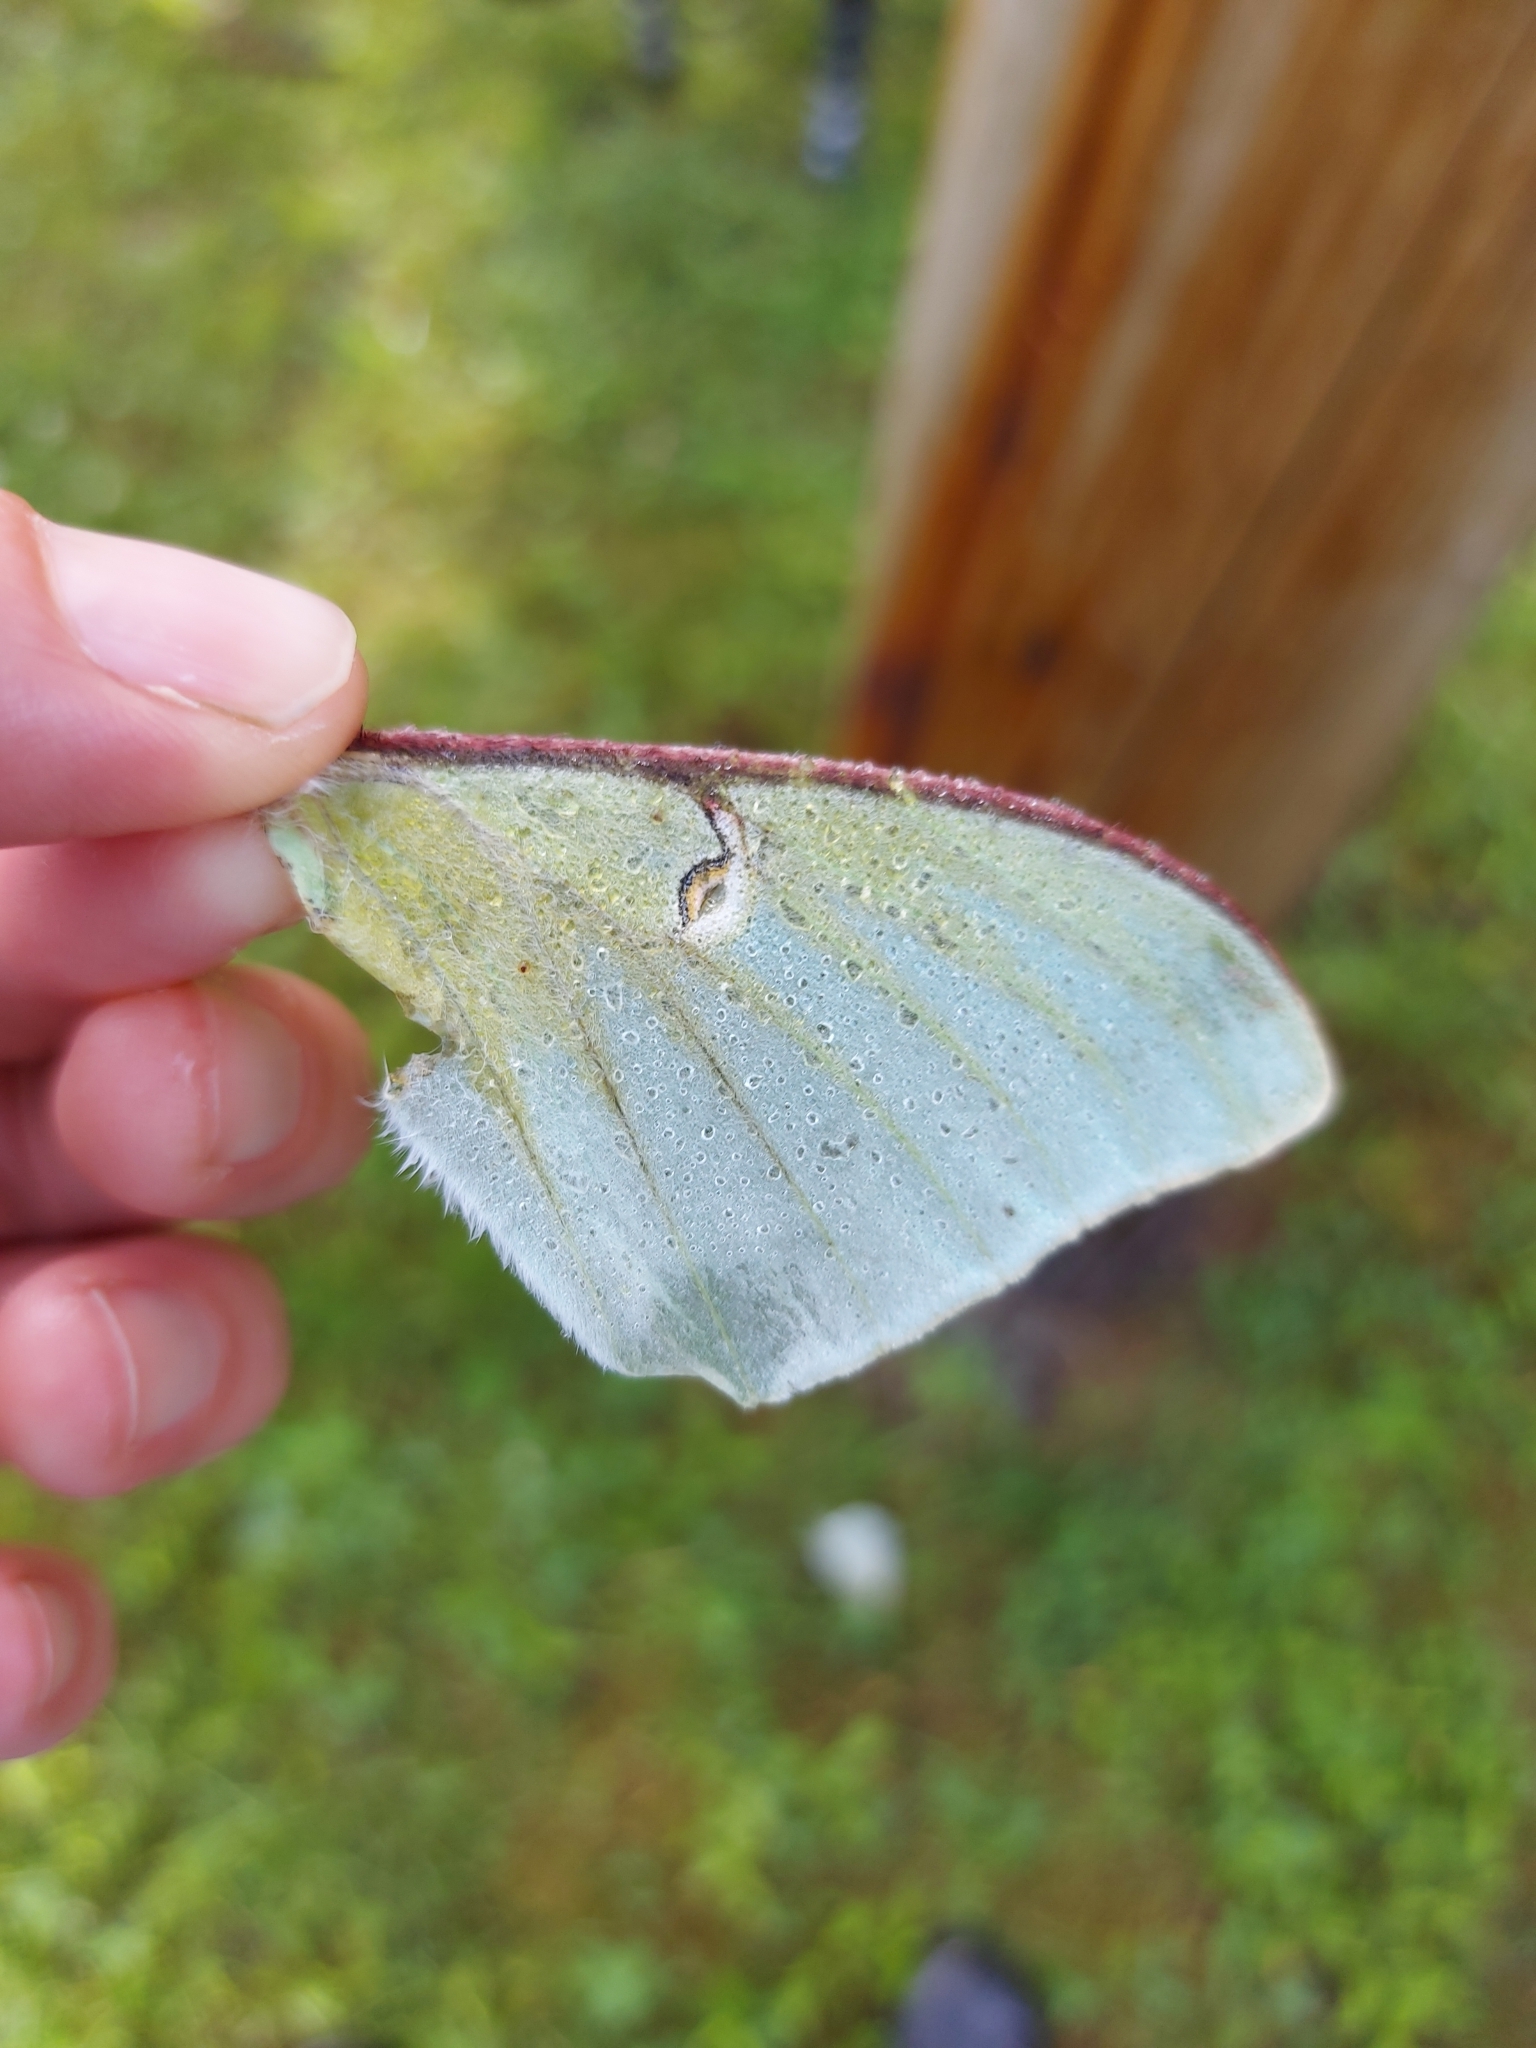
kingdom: Animalia
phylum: Arthropoda
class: Insecta
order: Lepidoptera
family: Saturniidae
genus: Actias
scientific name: Actias luna
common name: Luna moth
